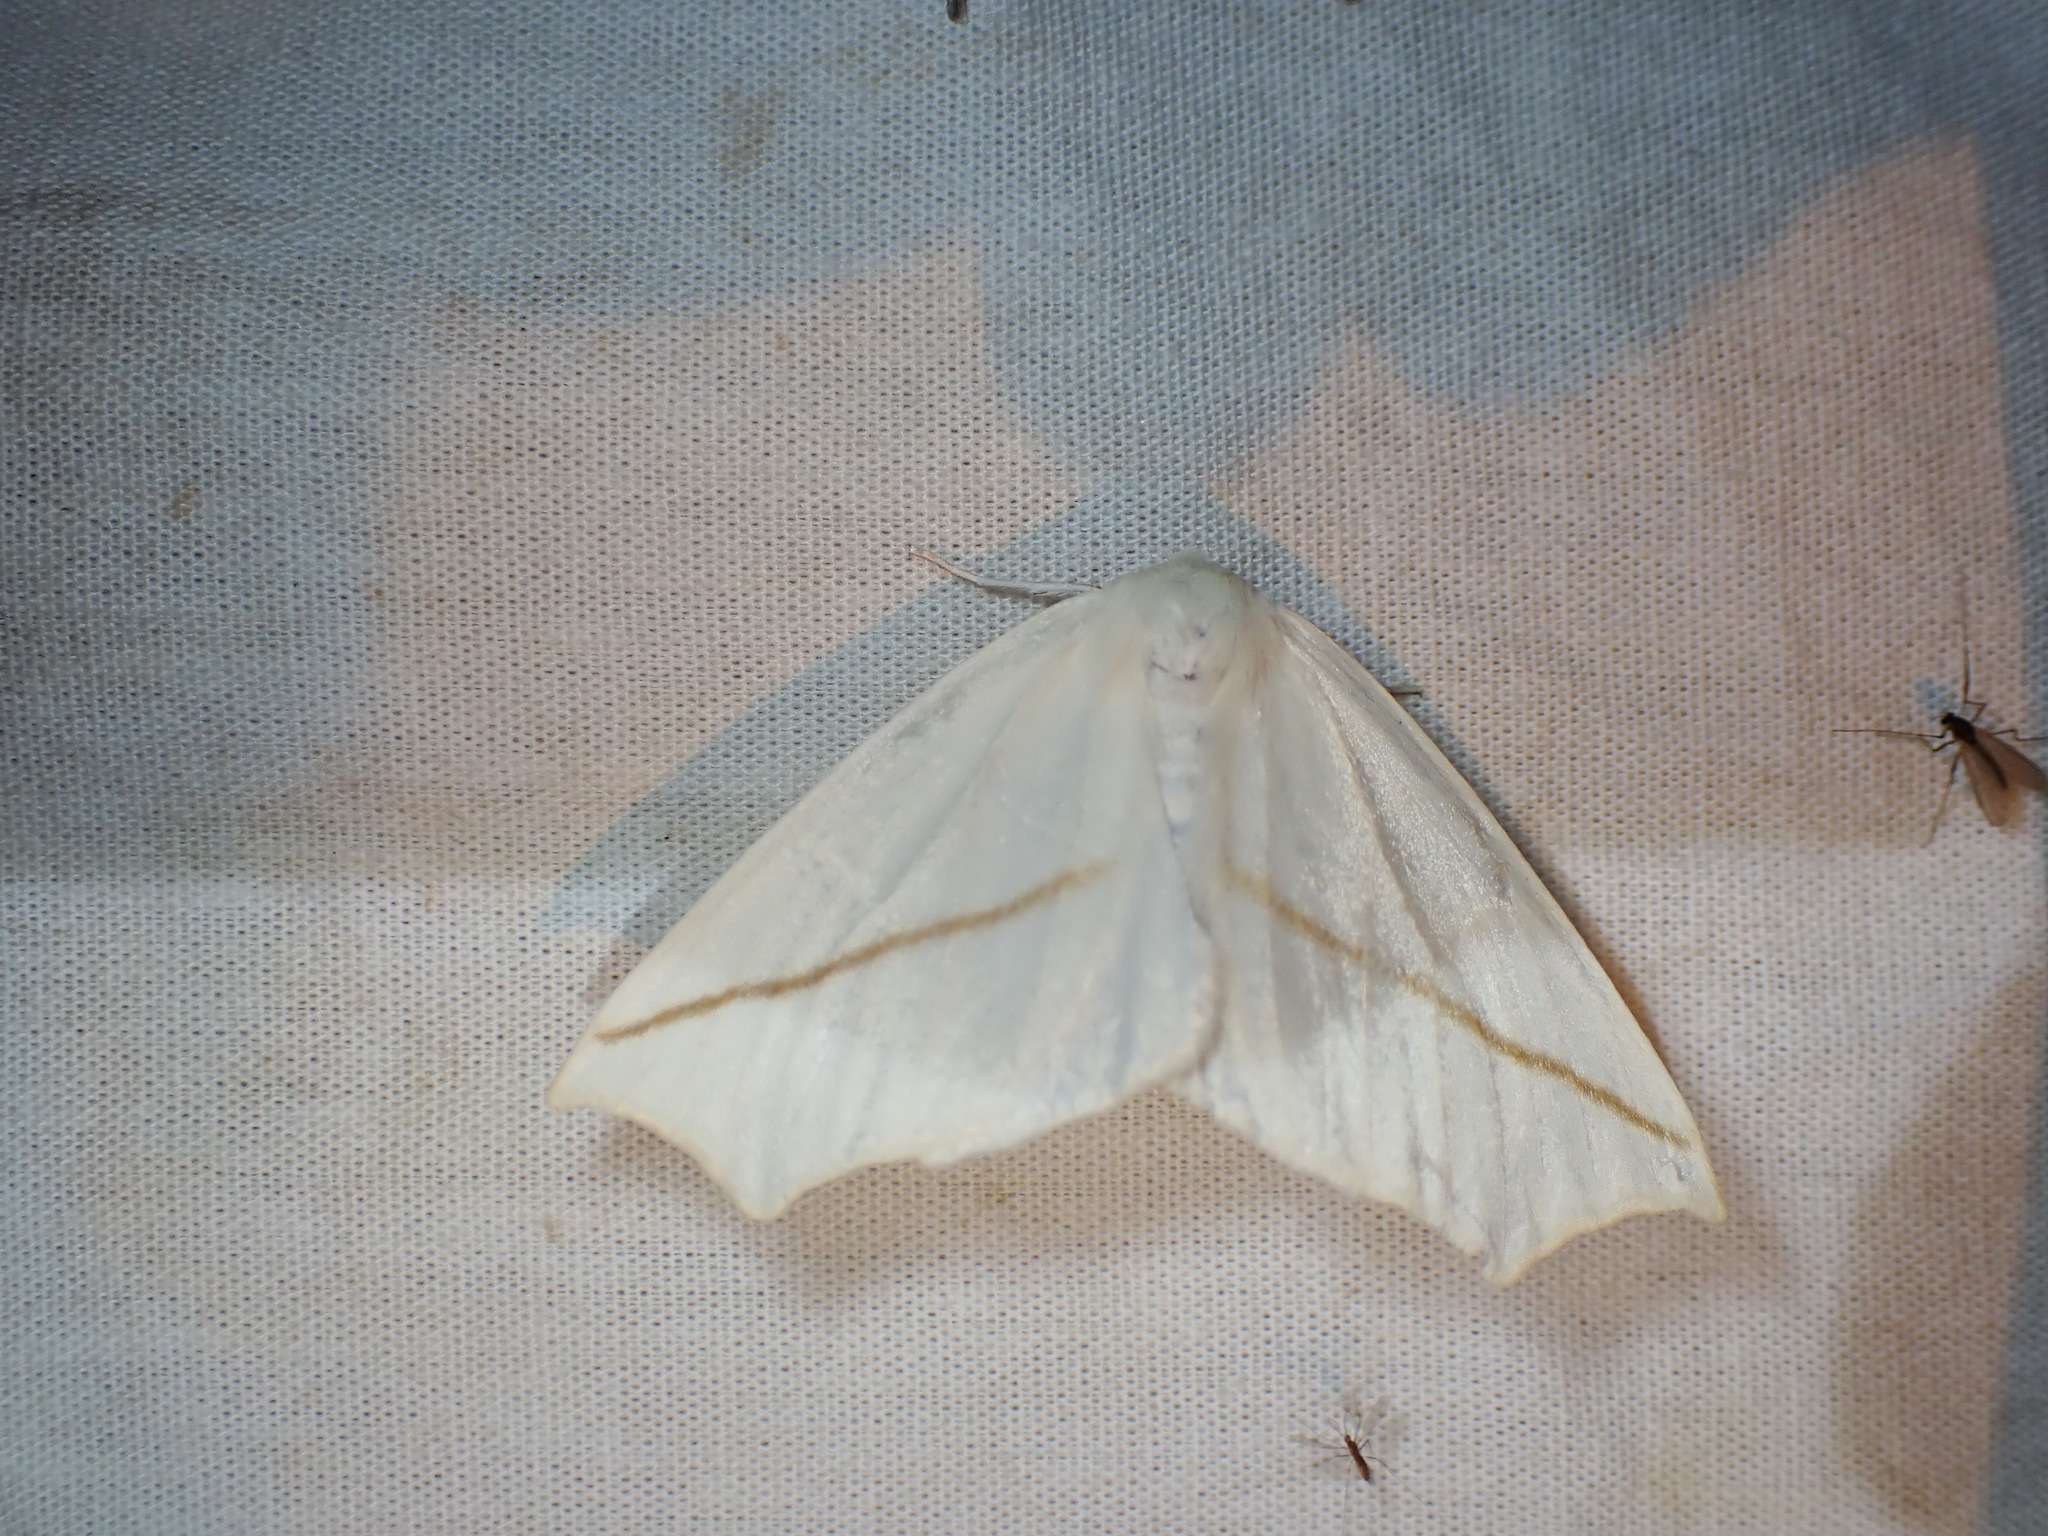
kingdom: Animalia
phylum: Arthropoda
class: Insecta
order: Lepidoptera
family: Geometridae
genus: Tetracis
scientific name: Tetracis cachexiata
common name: White slant-line
